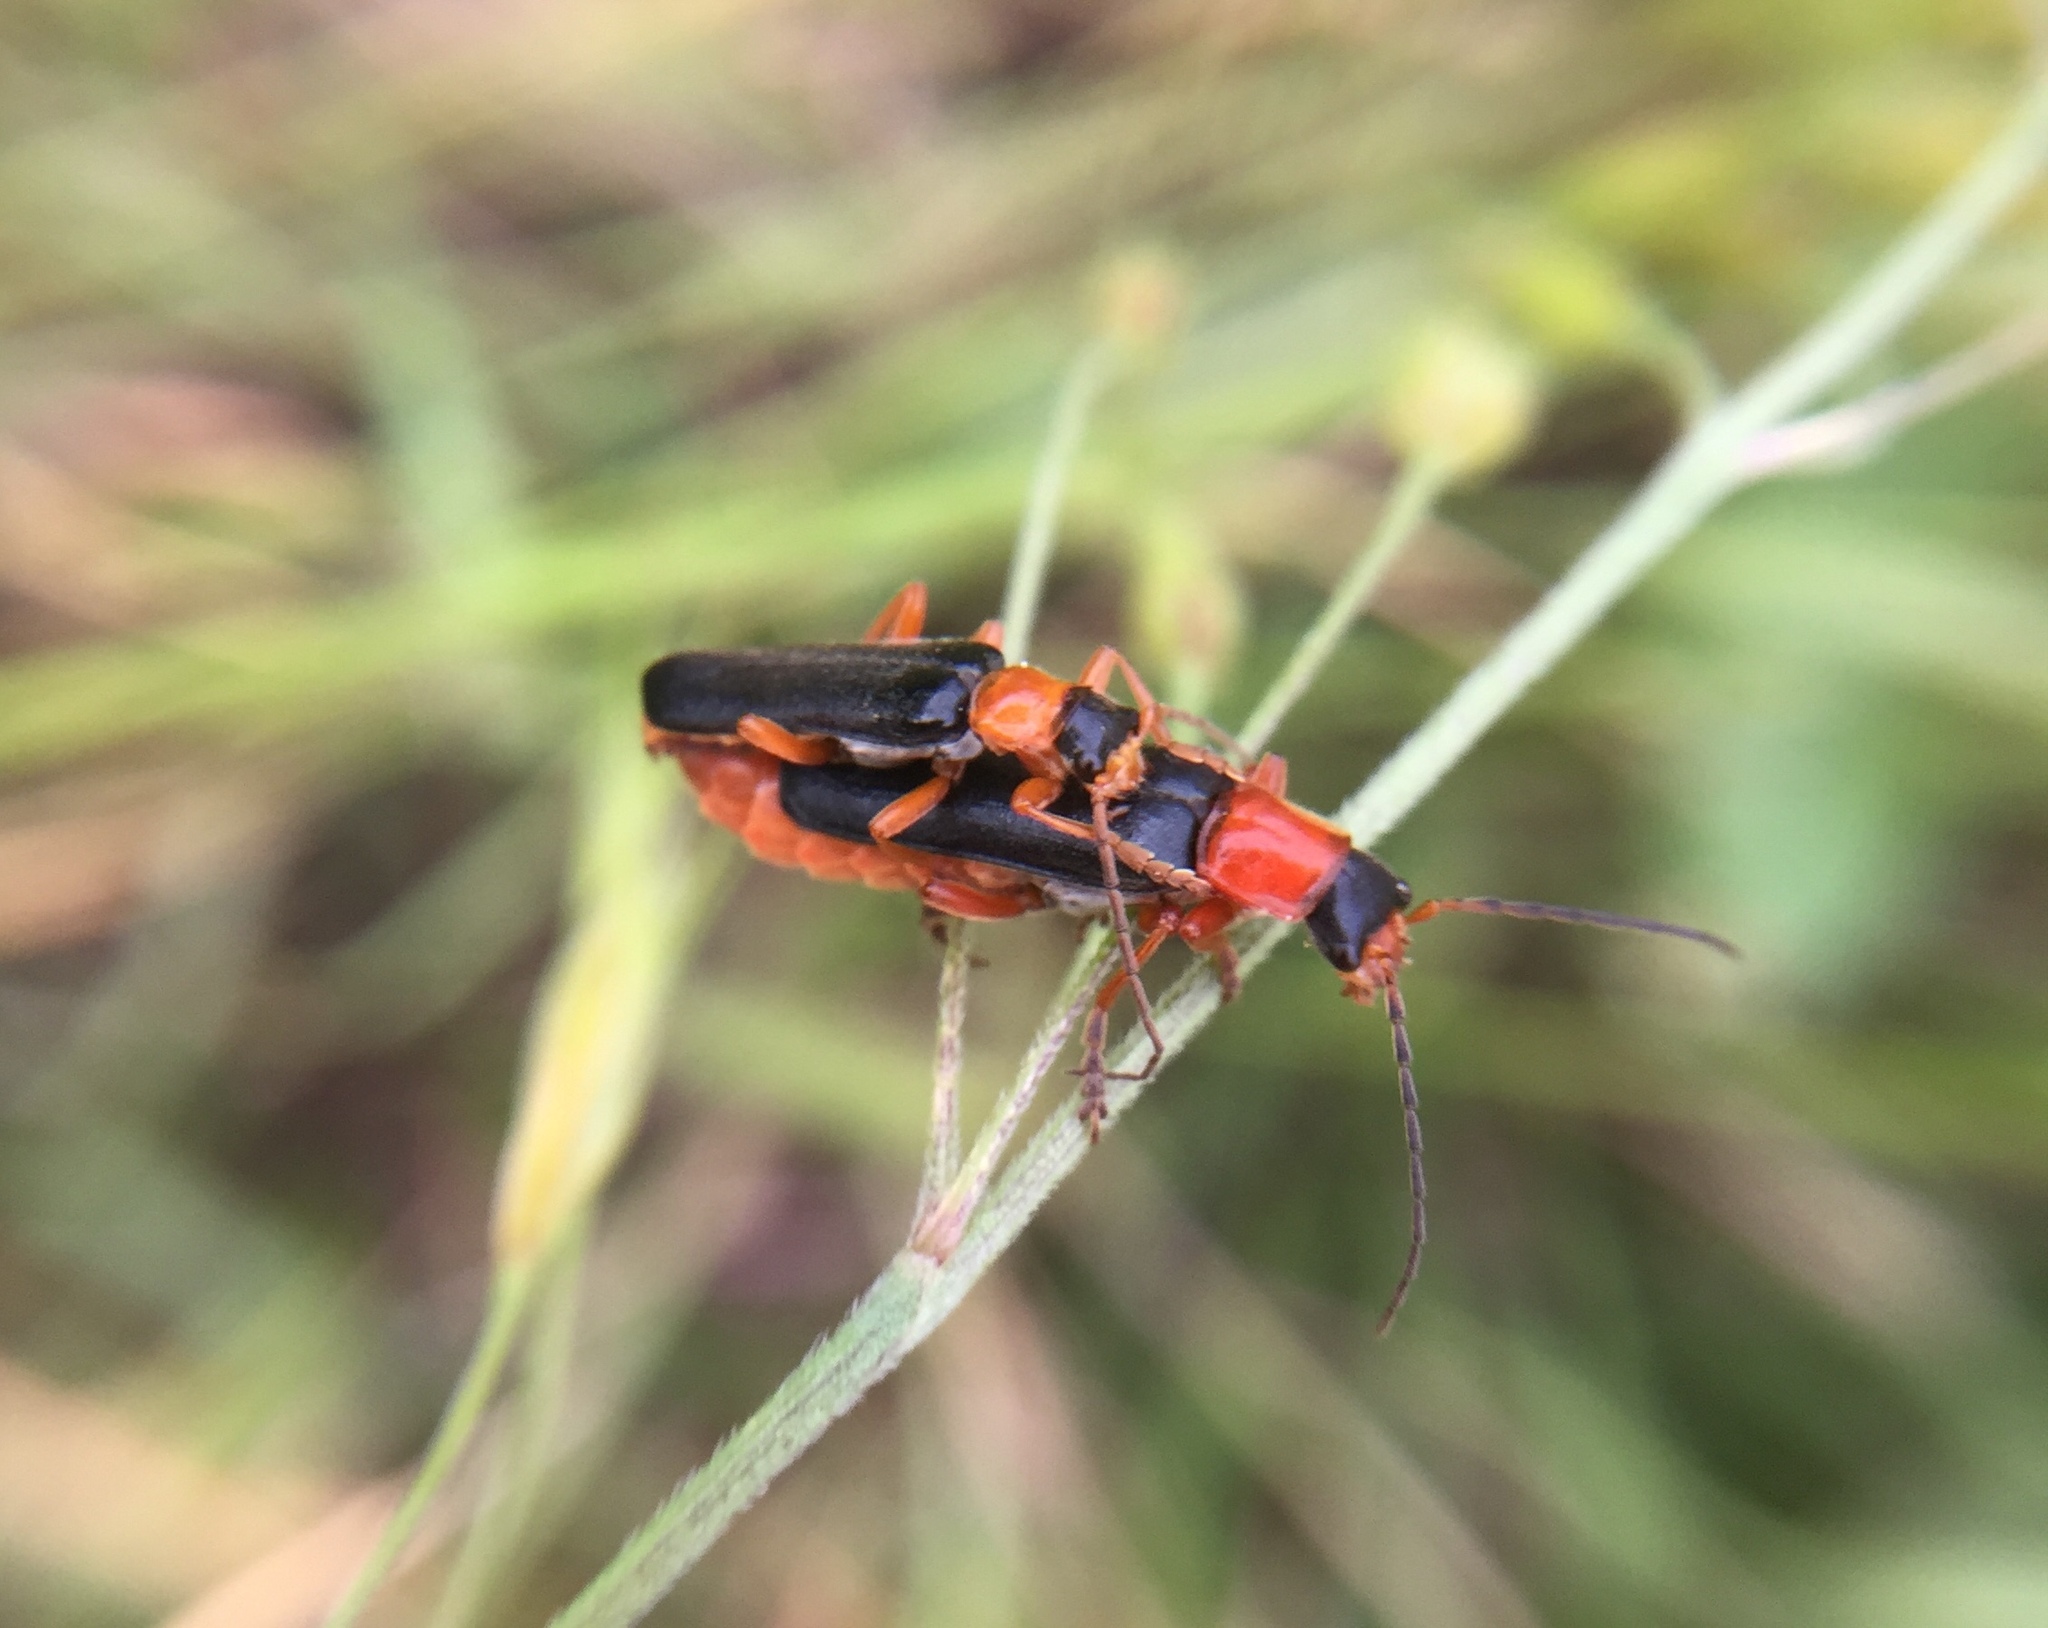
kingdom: Animalia
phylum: Arthropoda
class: Insecta
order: Coleoptera
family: Cantharidae
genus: Cordicantharis
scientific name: Cordicantharis longicollis
